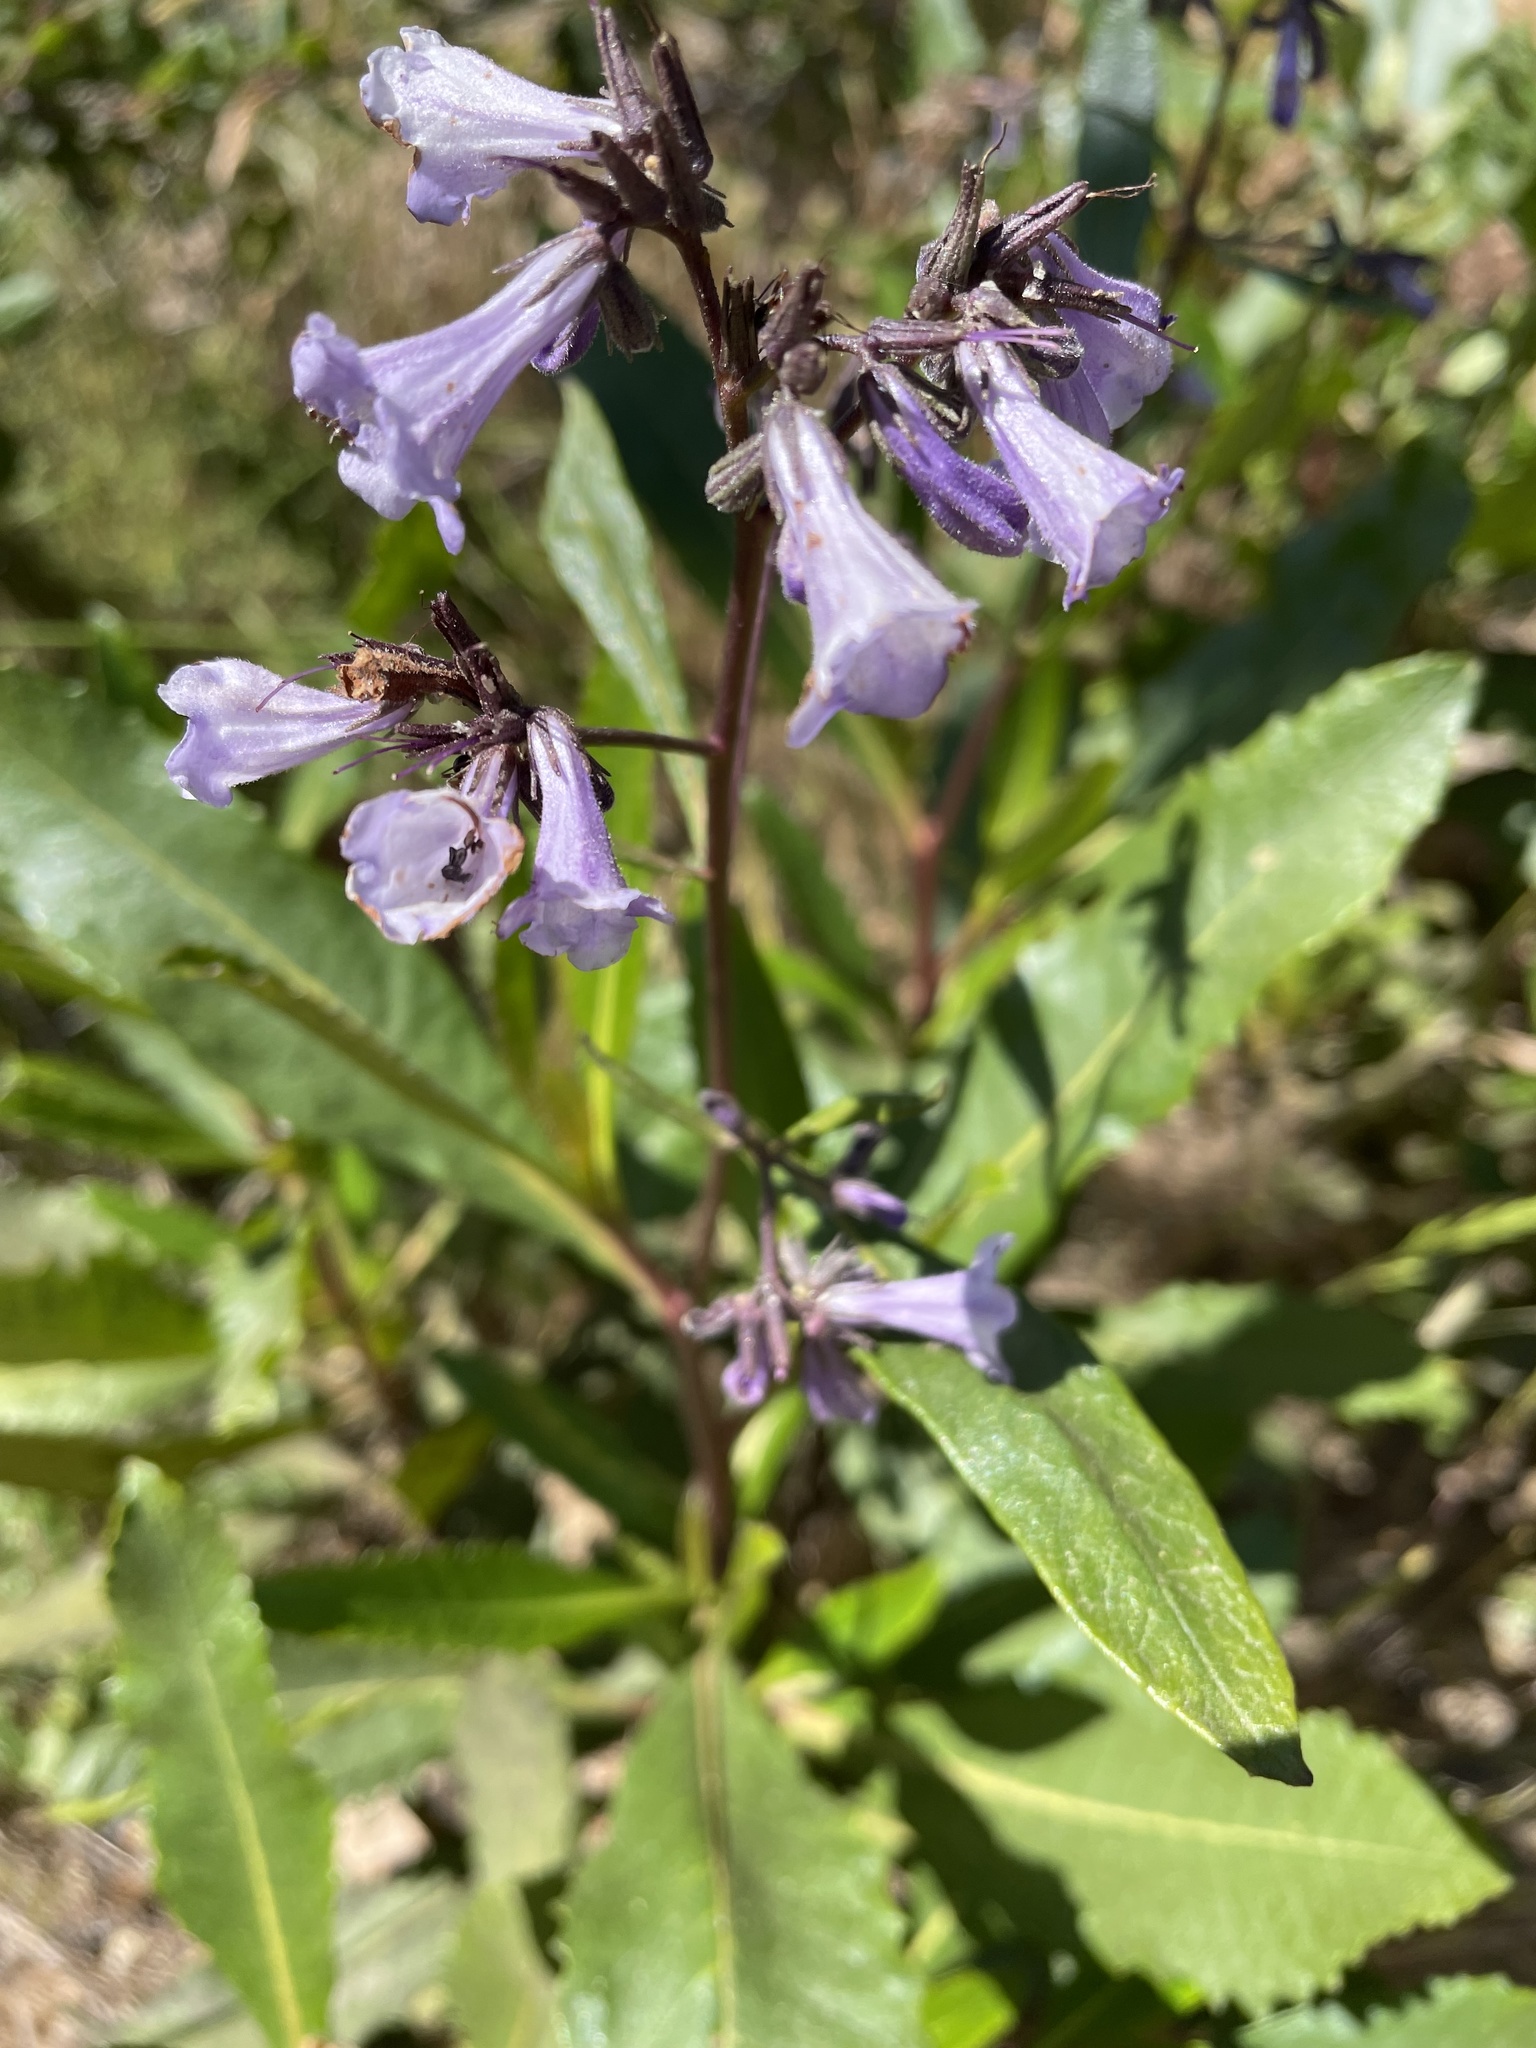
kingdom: Plantae
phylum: Tracheophyta
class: Magnoliopsida
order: Boraginales
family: Namaceae
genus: Eriodictyon
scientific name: Eriodictyon californicum
